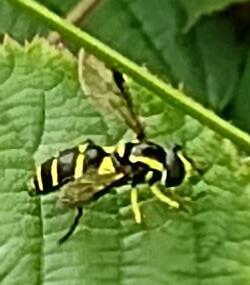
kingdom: Animalia
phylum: Arthropoda
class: Insecta
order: Diptera
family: Syrphidae
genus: Xanthogramma
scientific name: Xanthogramma
